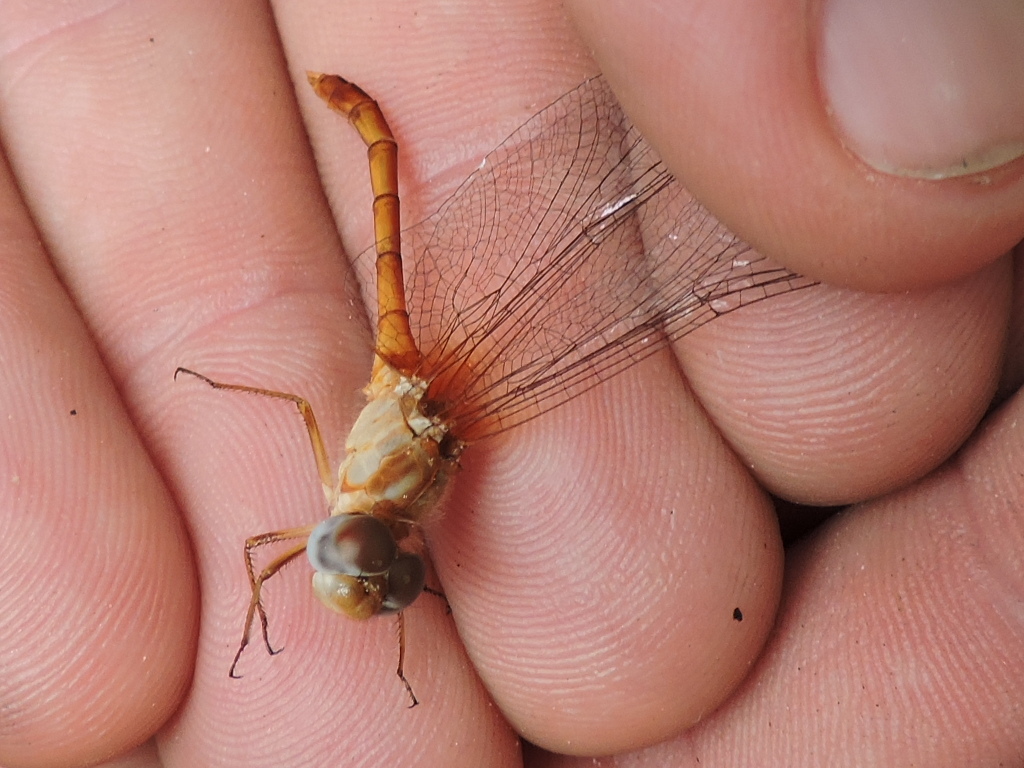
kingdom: Animalia
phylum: Arthropoda
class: Insecta
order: Odonata
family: Libellulidae
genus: Sympetrum
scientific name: Sympetrum vicinum
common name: Autumn meadowhawk
